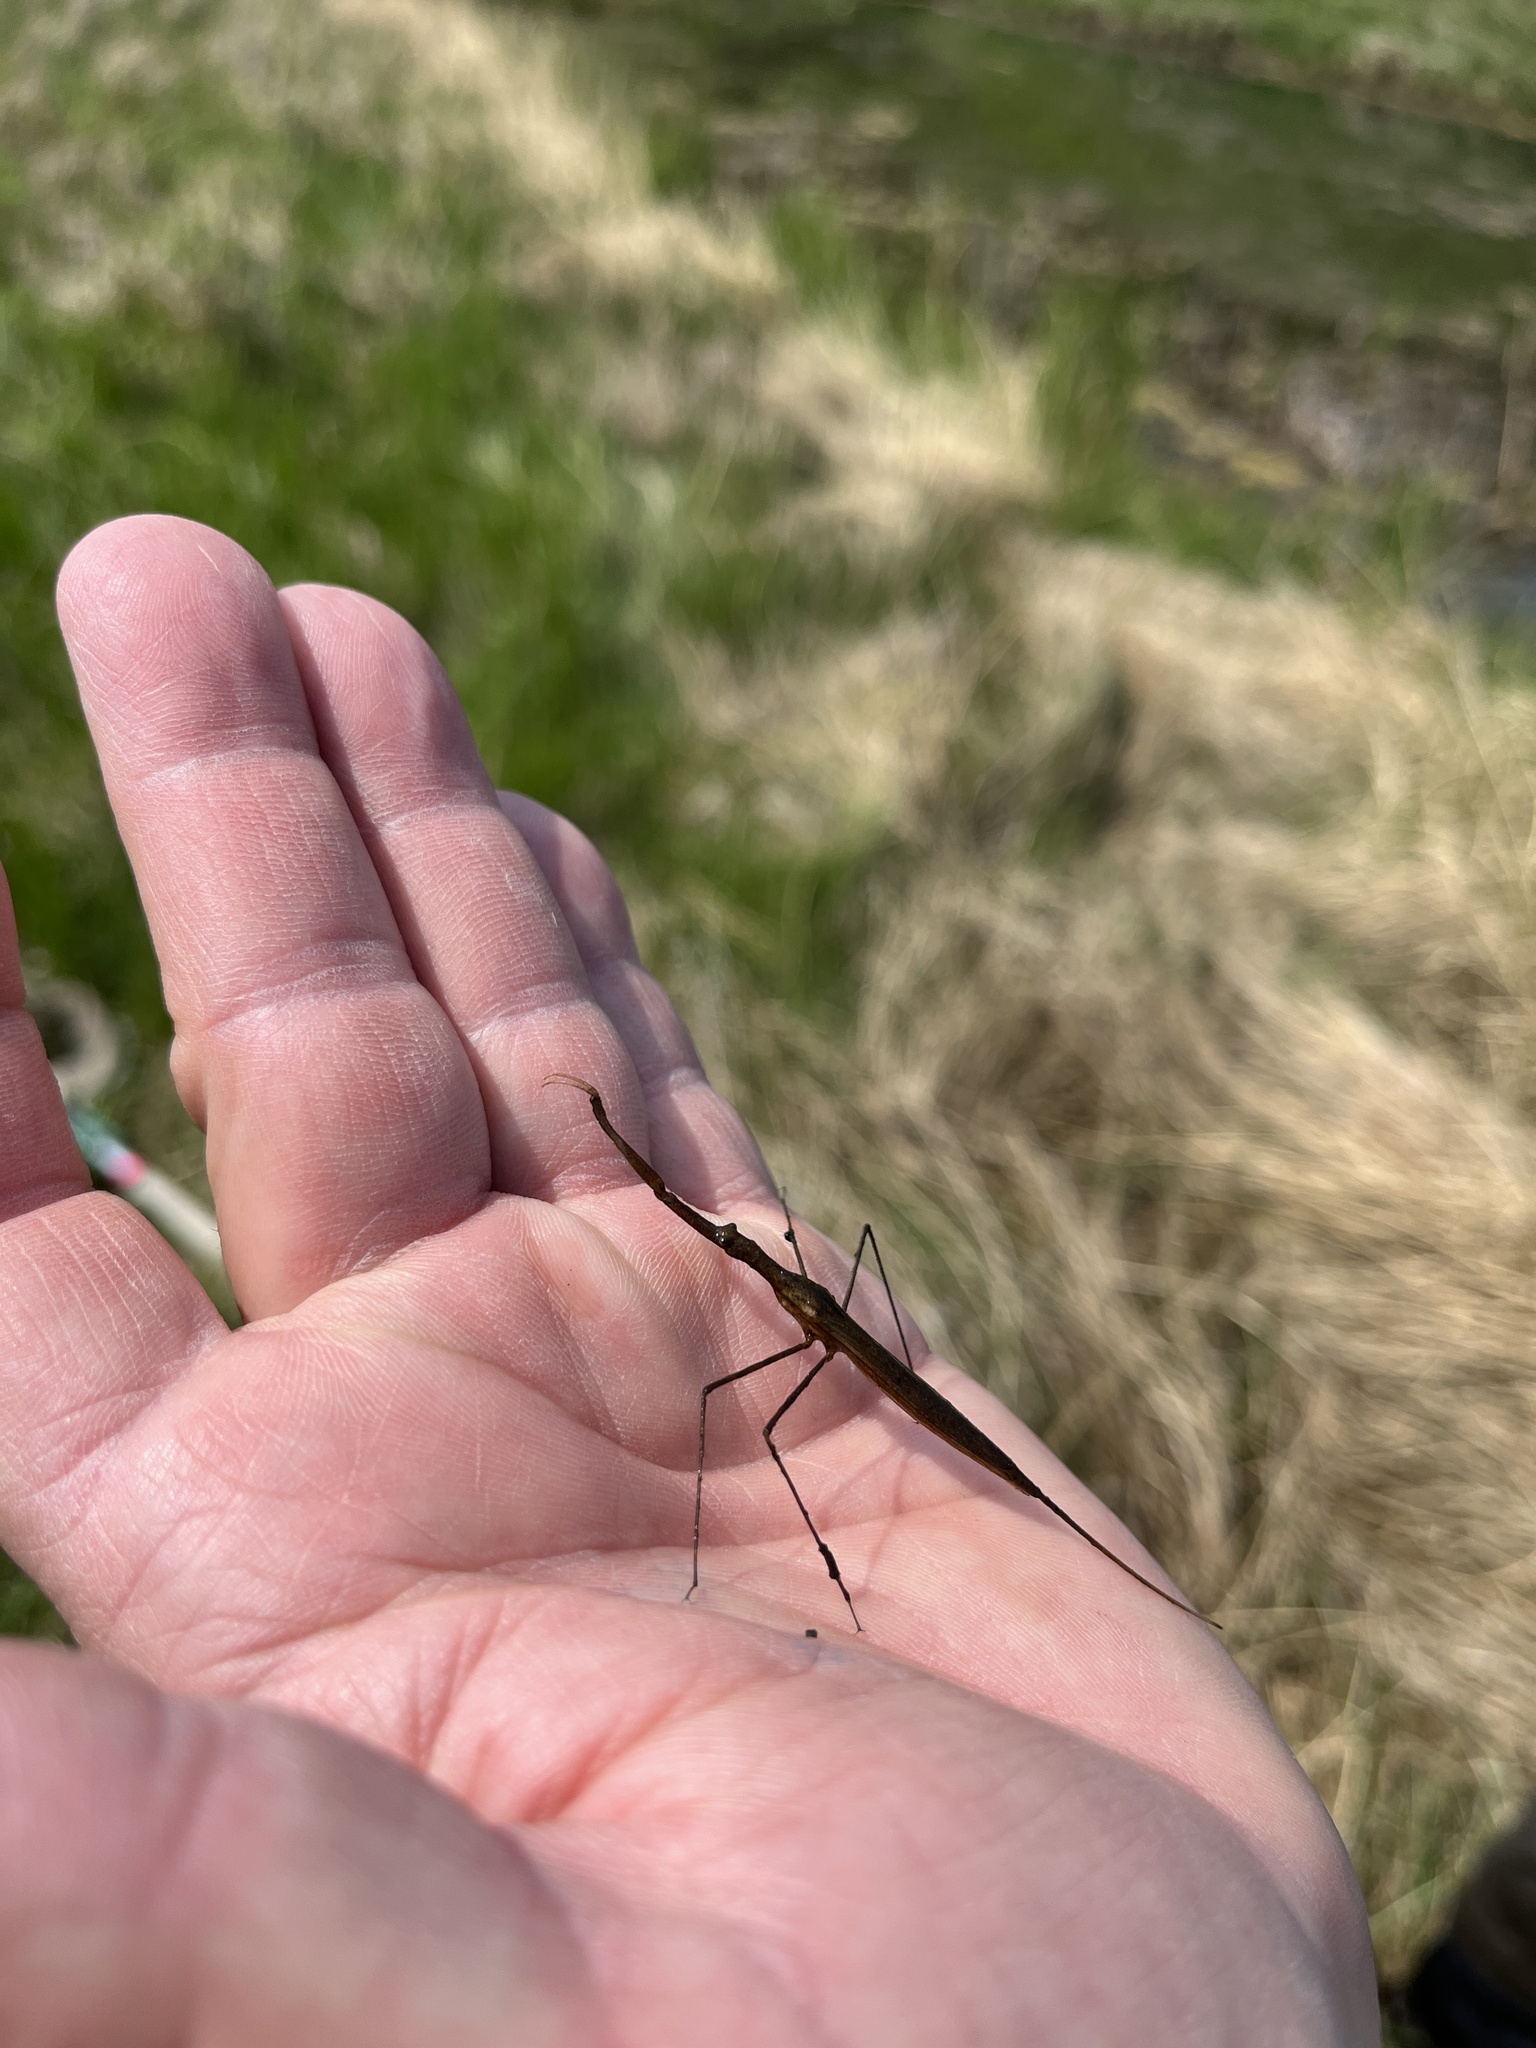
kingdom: Animalia
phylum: Arthropoda
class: Insecta
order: Hemiptera
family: Nepidae
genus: Ranatra
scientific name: Ranatra fusca
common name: Brown waterscorpion
